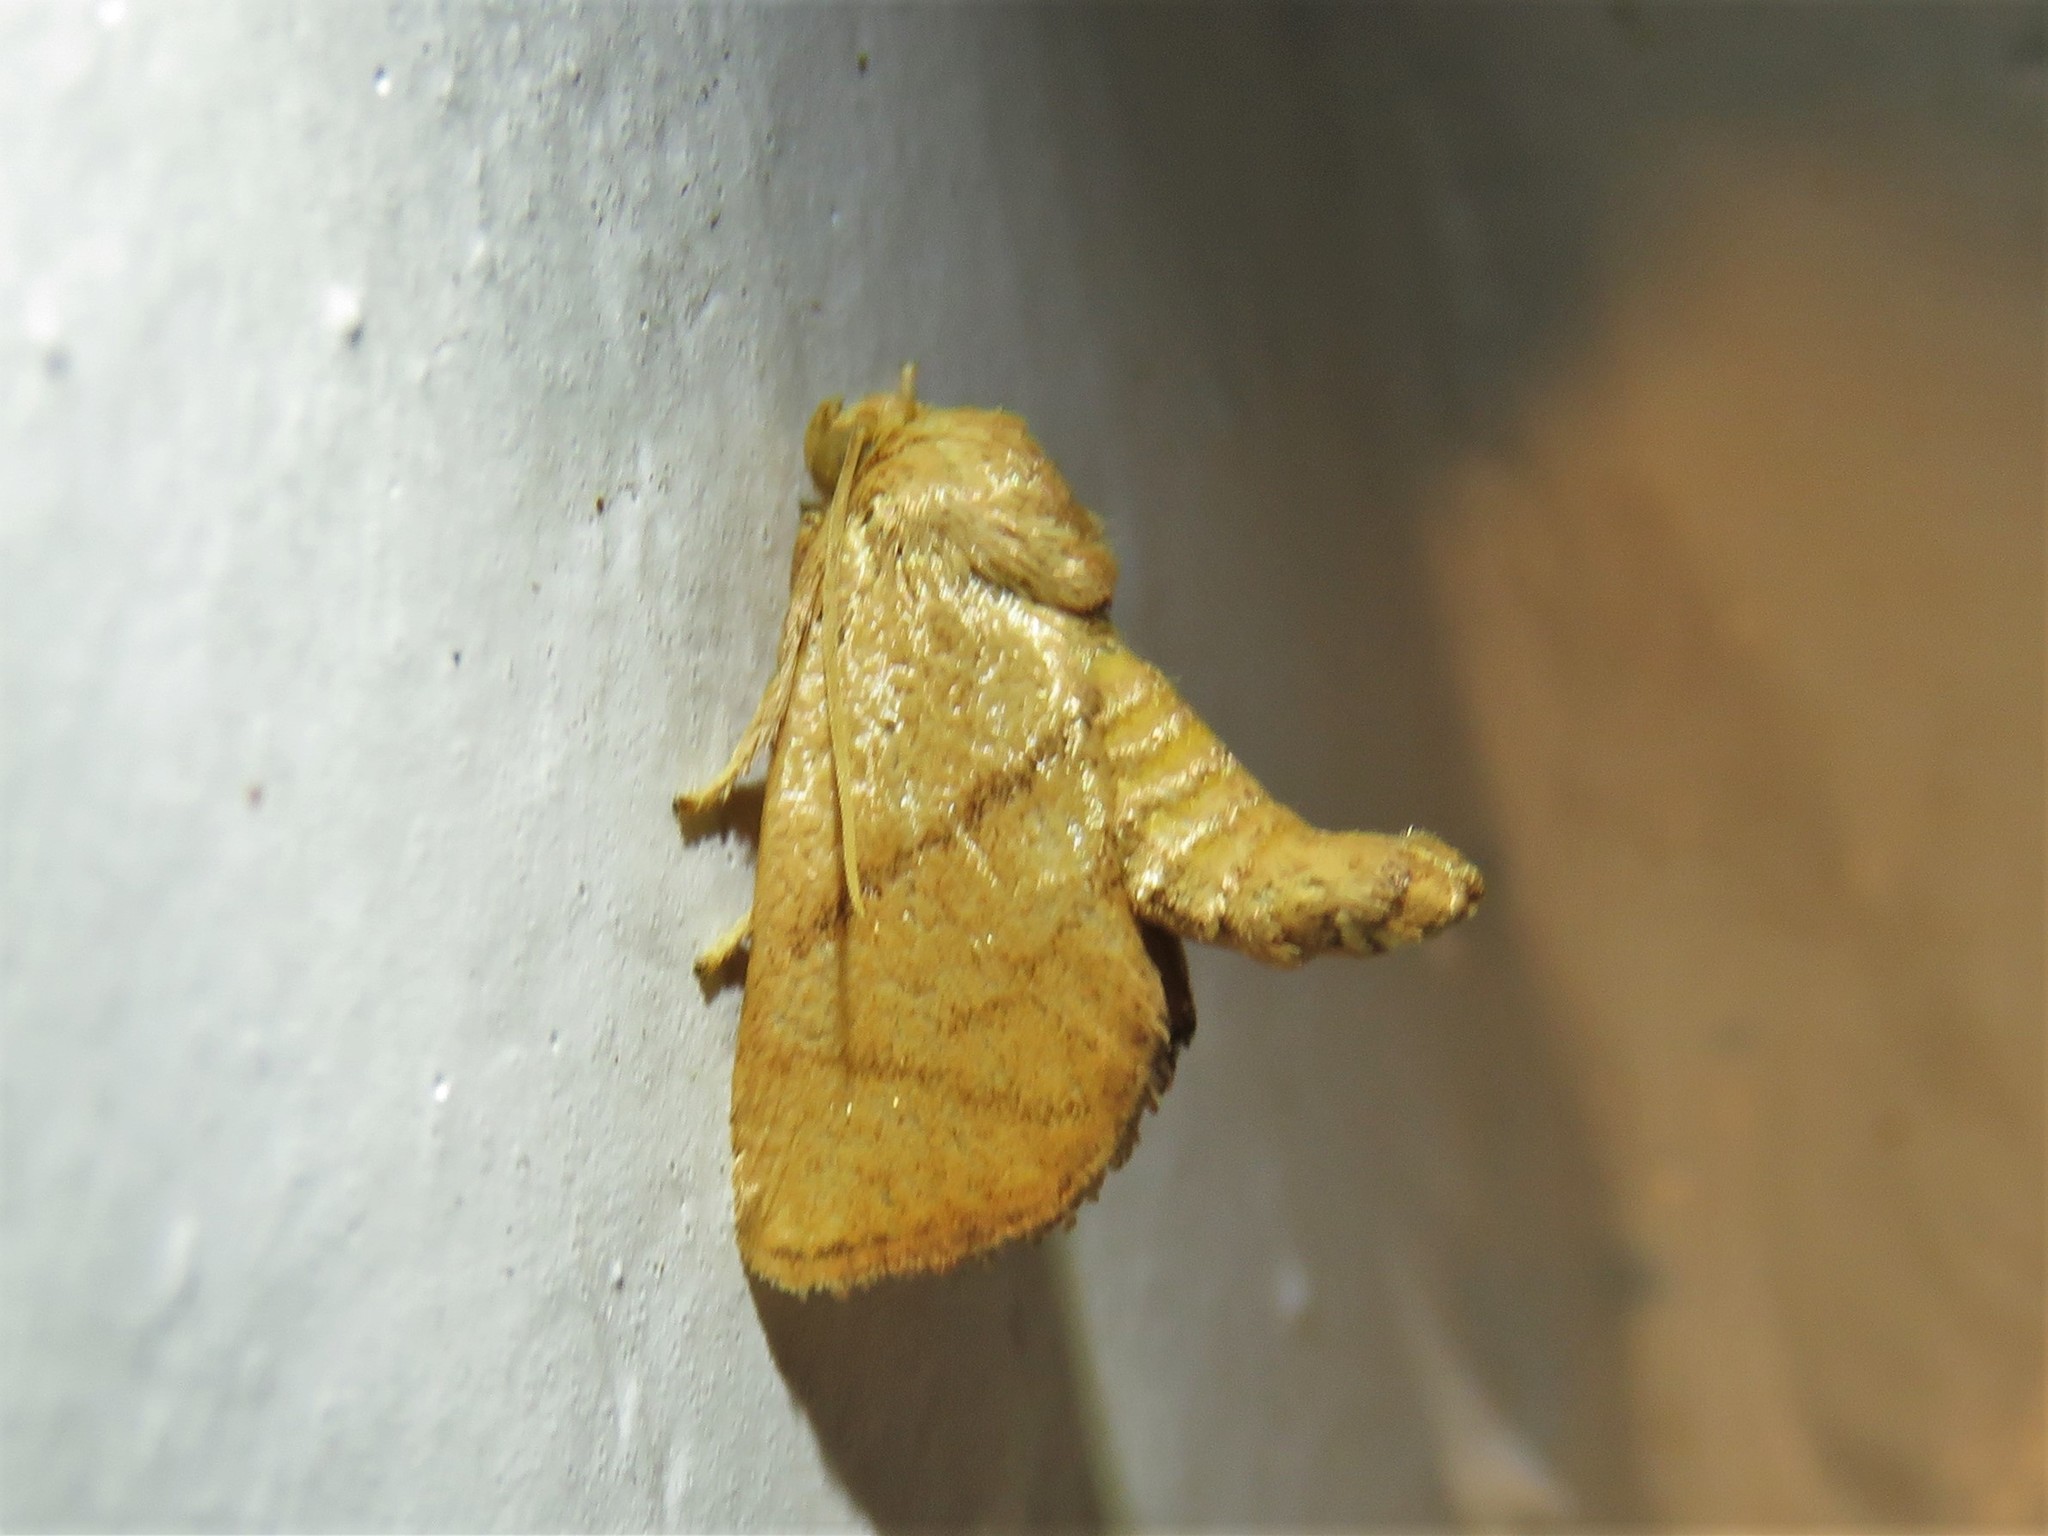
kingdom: Animalia
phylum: Arthropoda
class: Insecta
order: Lepidoptera
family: Limacodidae
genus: Apoda
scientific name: Apoda y-inversa
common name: Yellow-collared slug moth
